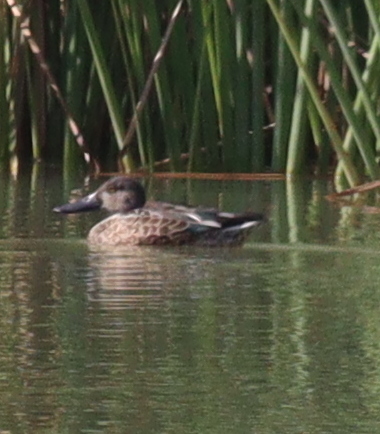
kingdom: Animalia
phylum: Chordata
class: Aves
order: Anseriformes
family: Anatidae
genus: Spatula
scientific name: Spatula clypeata
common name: Northern shoveler
